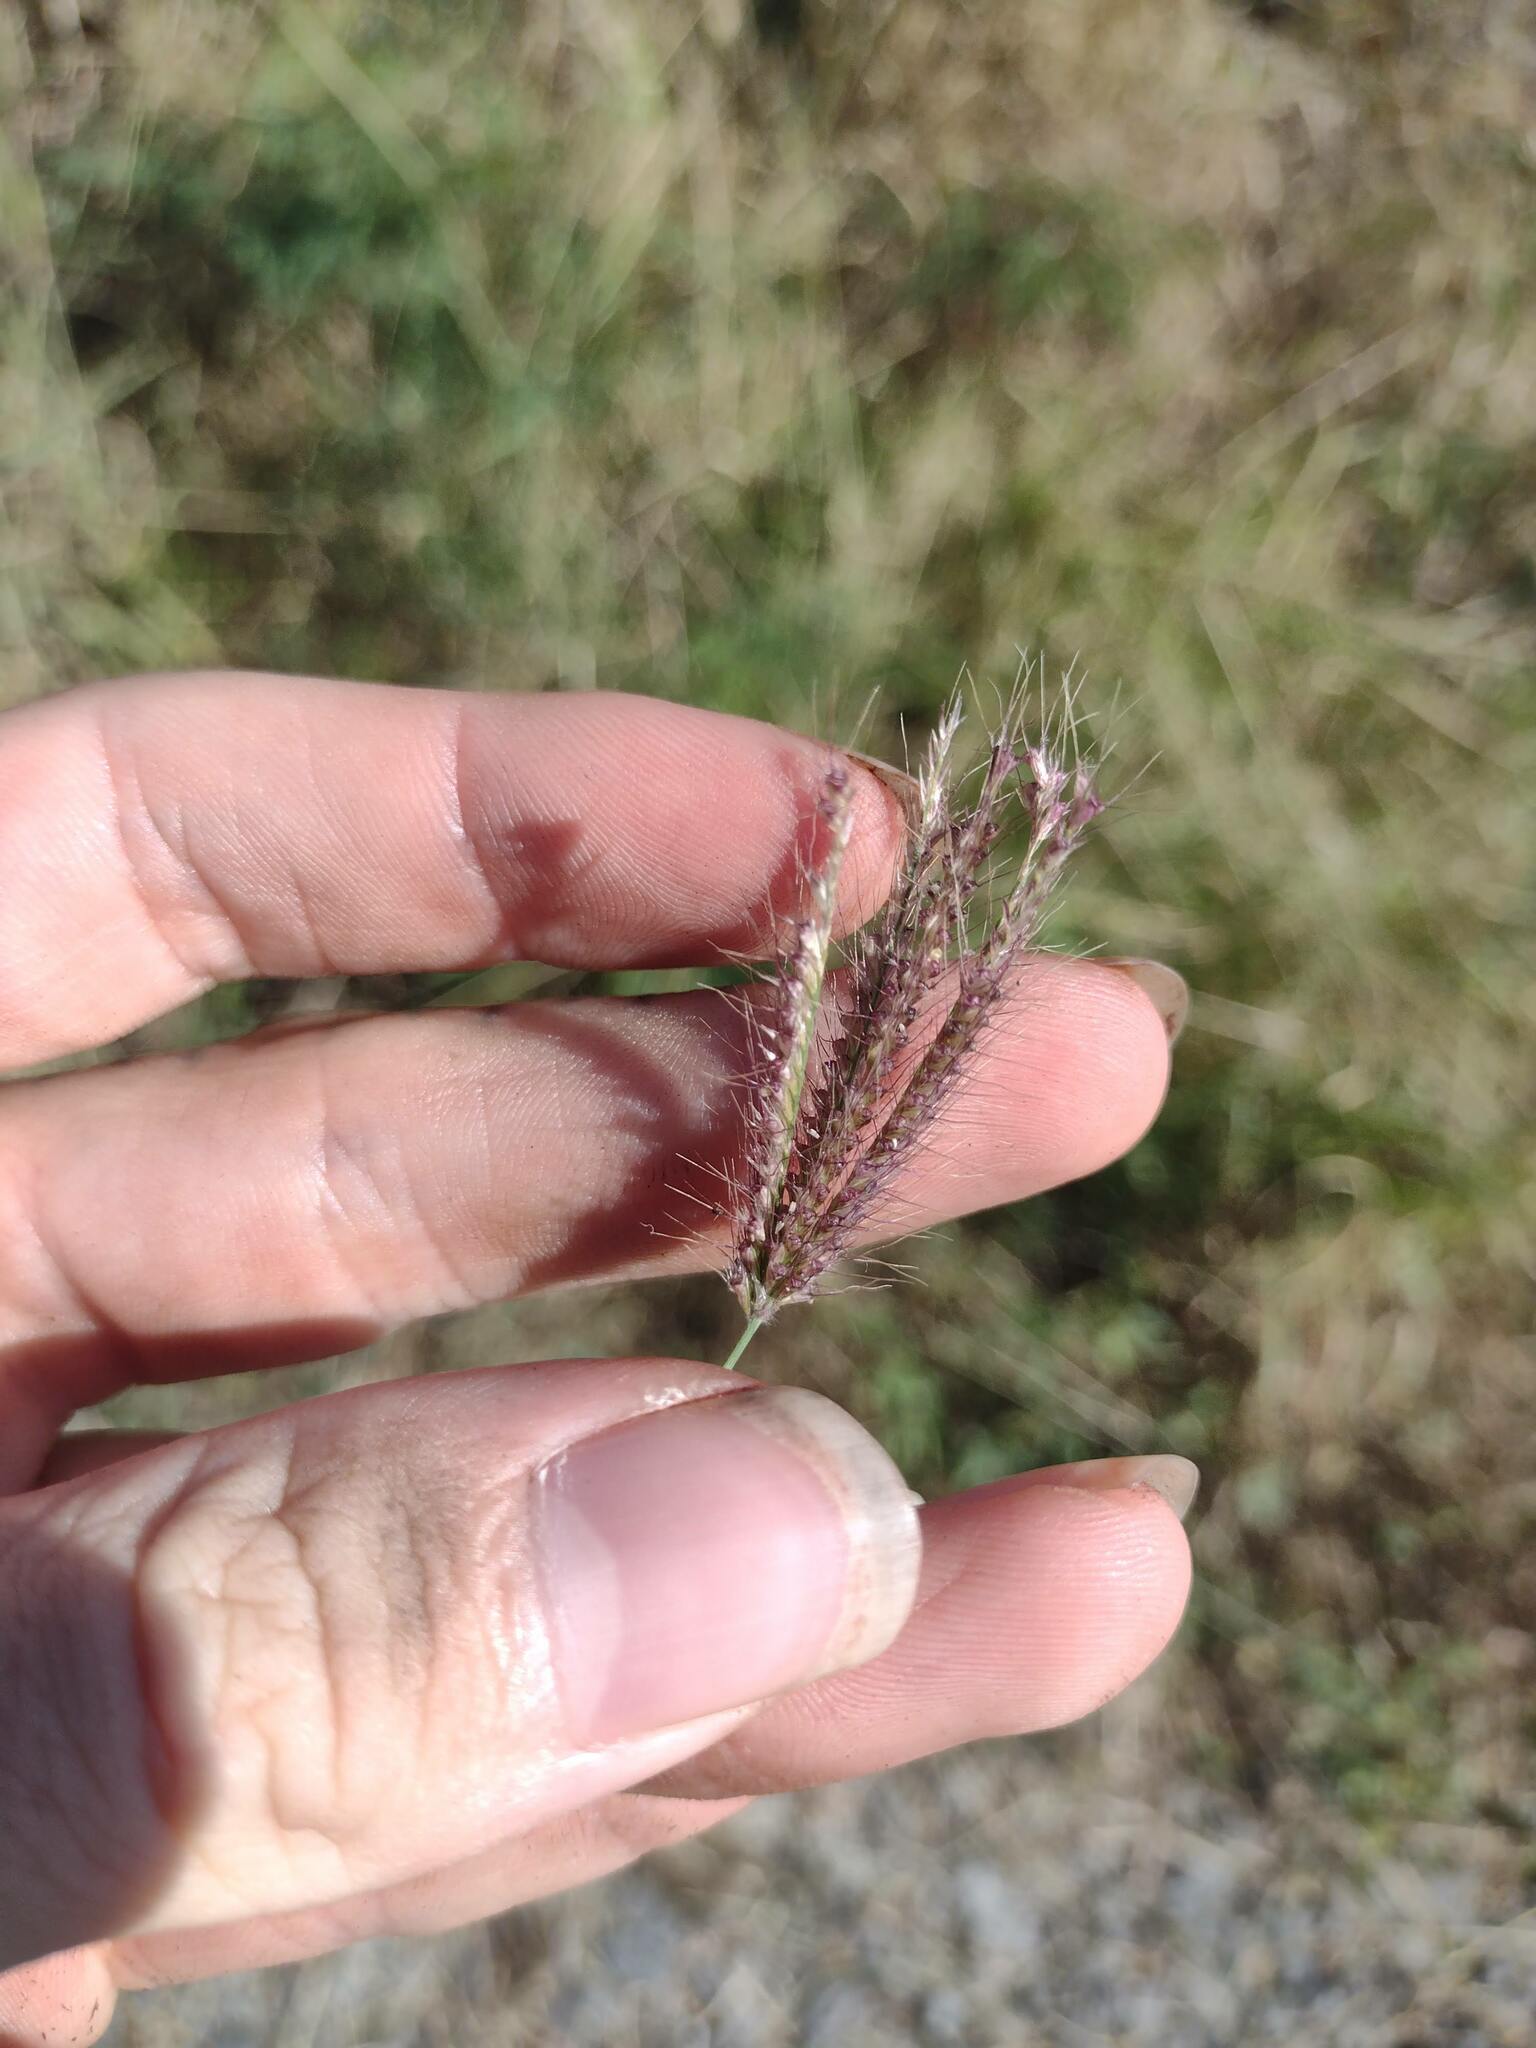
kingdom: Plantae
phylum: Tracheophyta
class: Liliopsida
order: Poales
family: Poaceae
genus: Chloris
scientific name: Chloris barbata
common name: Swollen fingergrass
